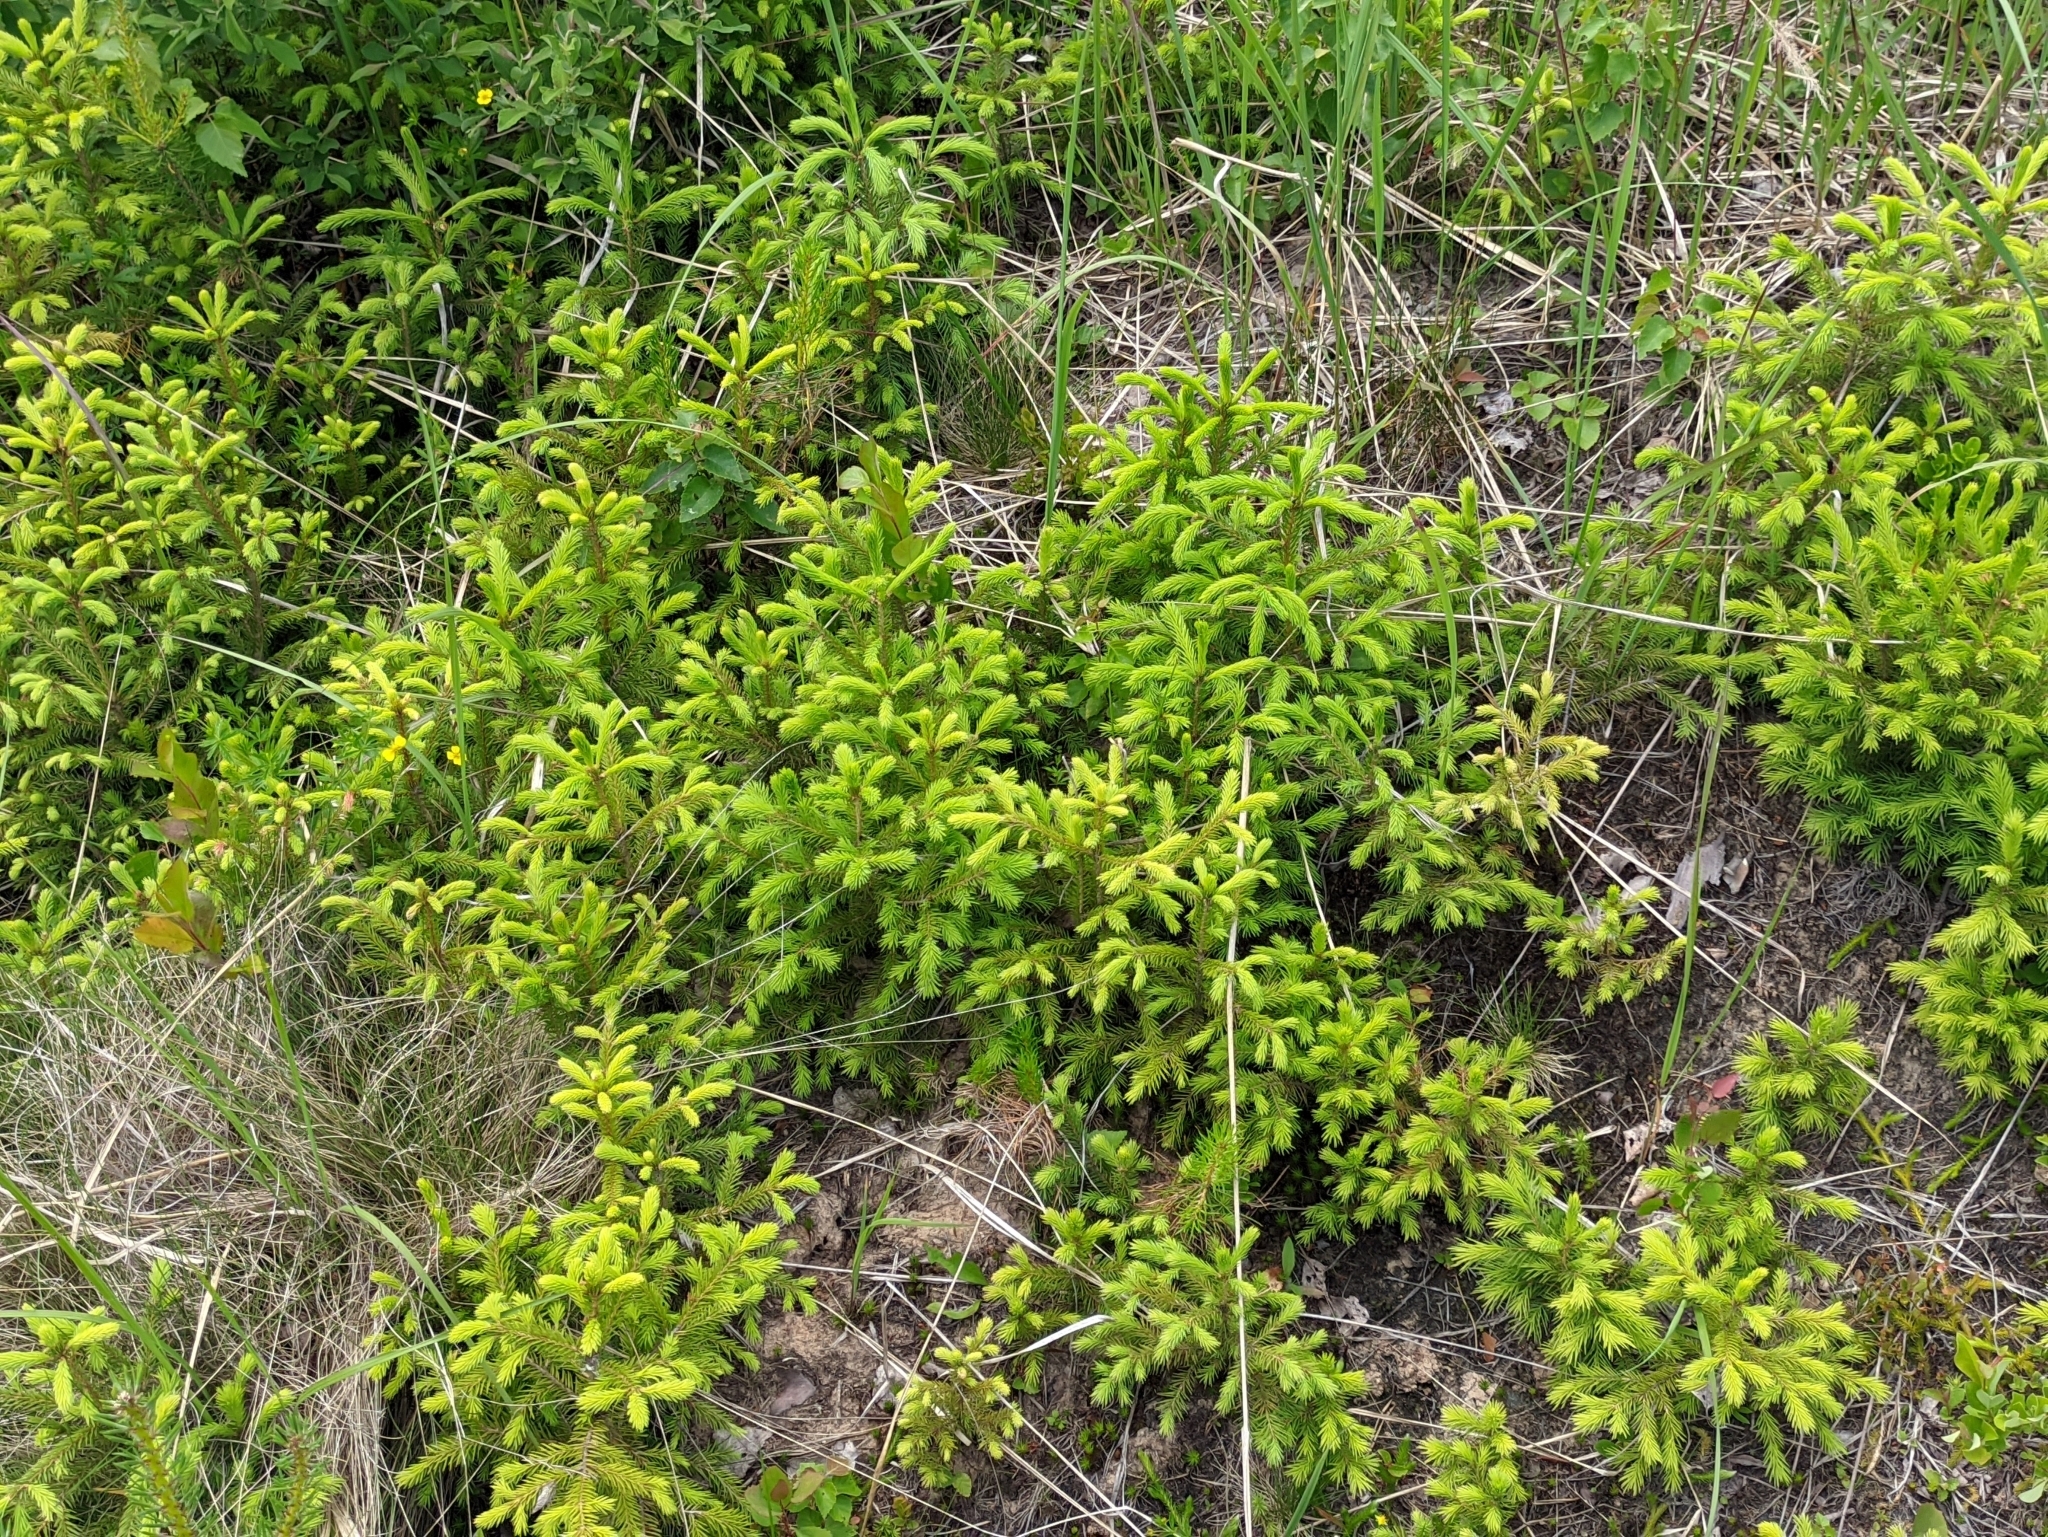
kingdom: Plantae
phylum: Tracheophyta
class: Pinopsida
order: Pinales
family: Pinaceae
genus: Picea
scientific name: Picea abies
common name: Norway spruce
